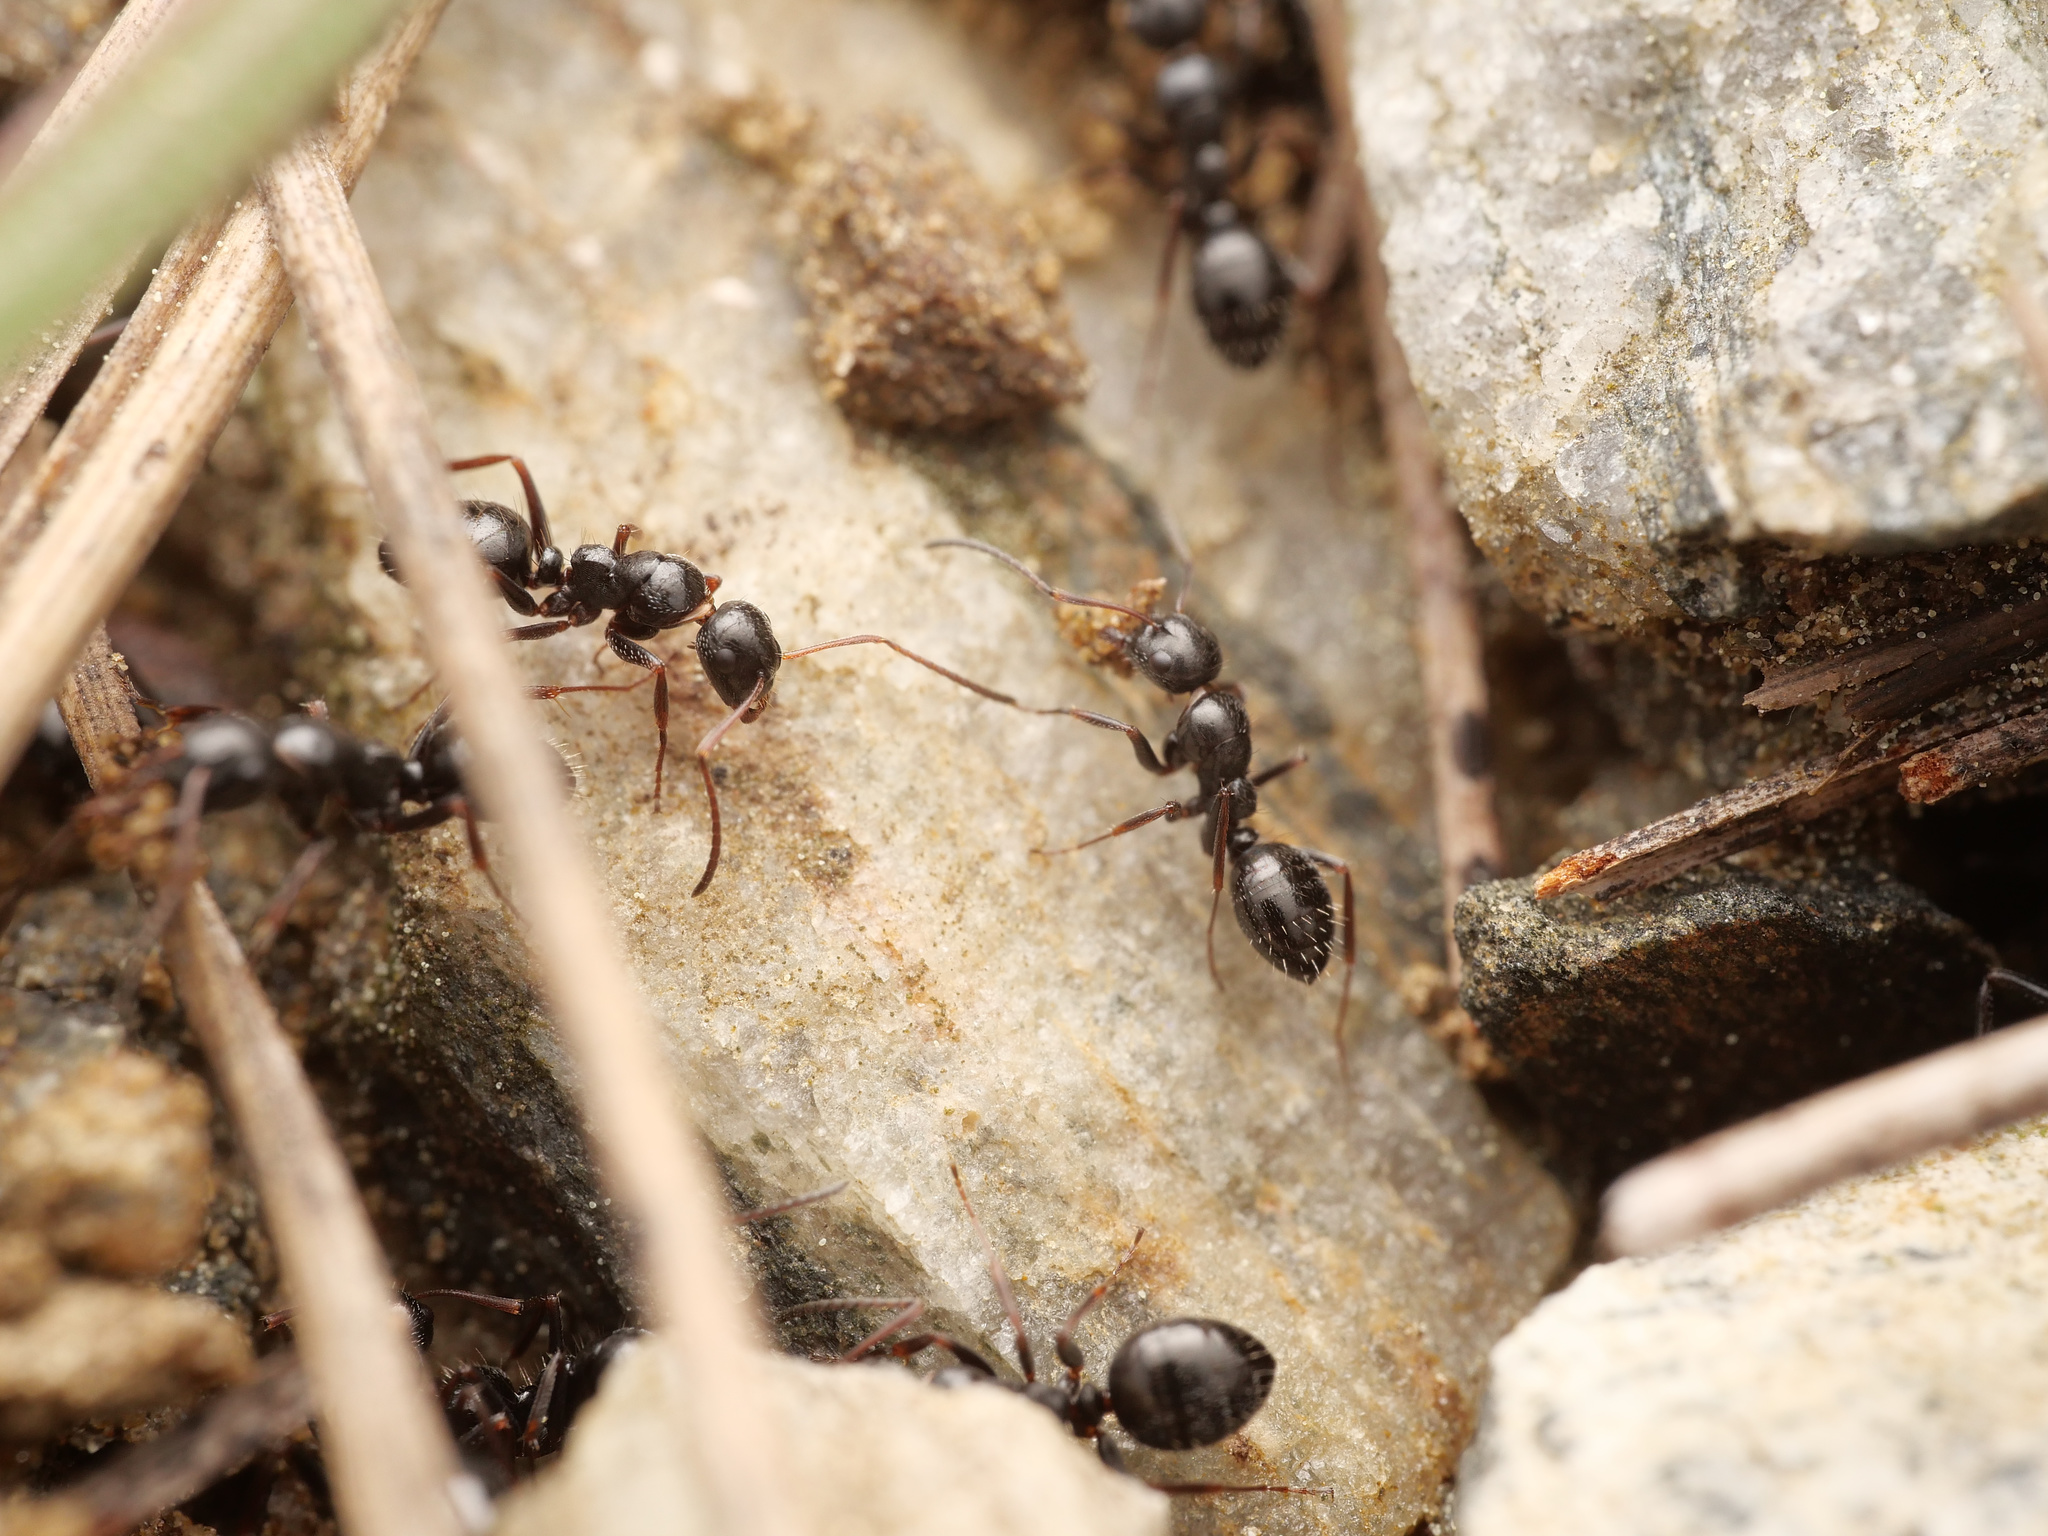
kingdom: Animalia
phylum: Arthropoda
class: Insecta
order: Hymenoptera
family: Formicidae
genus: Camponotus
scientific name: Camponotus piceus
